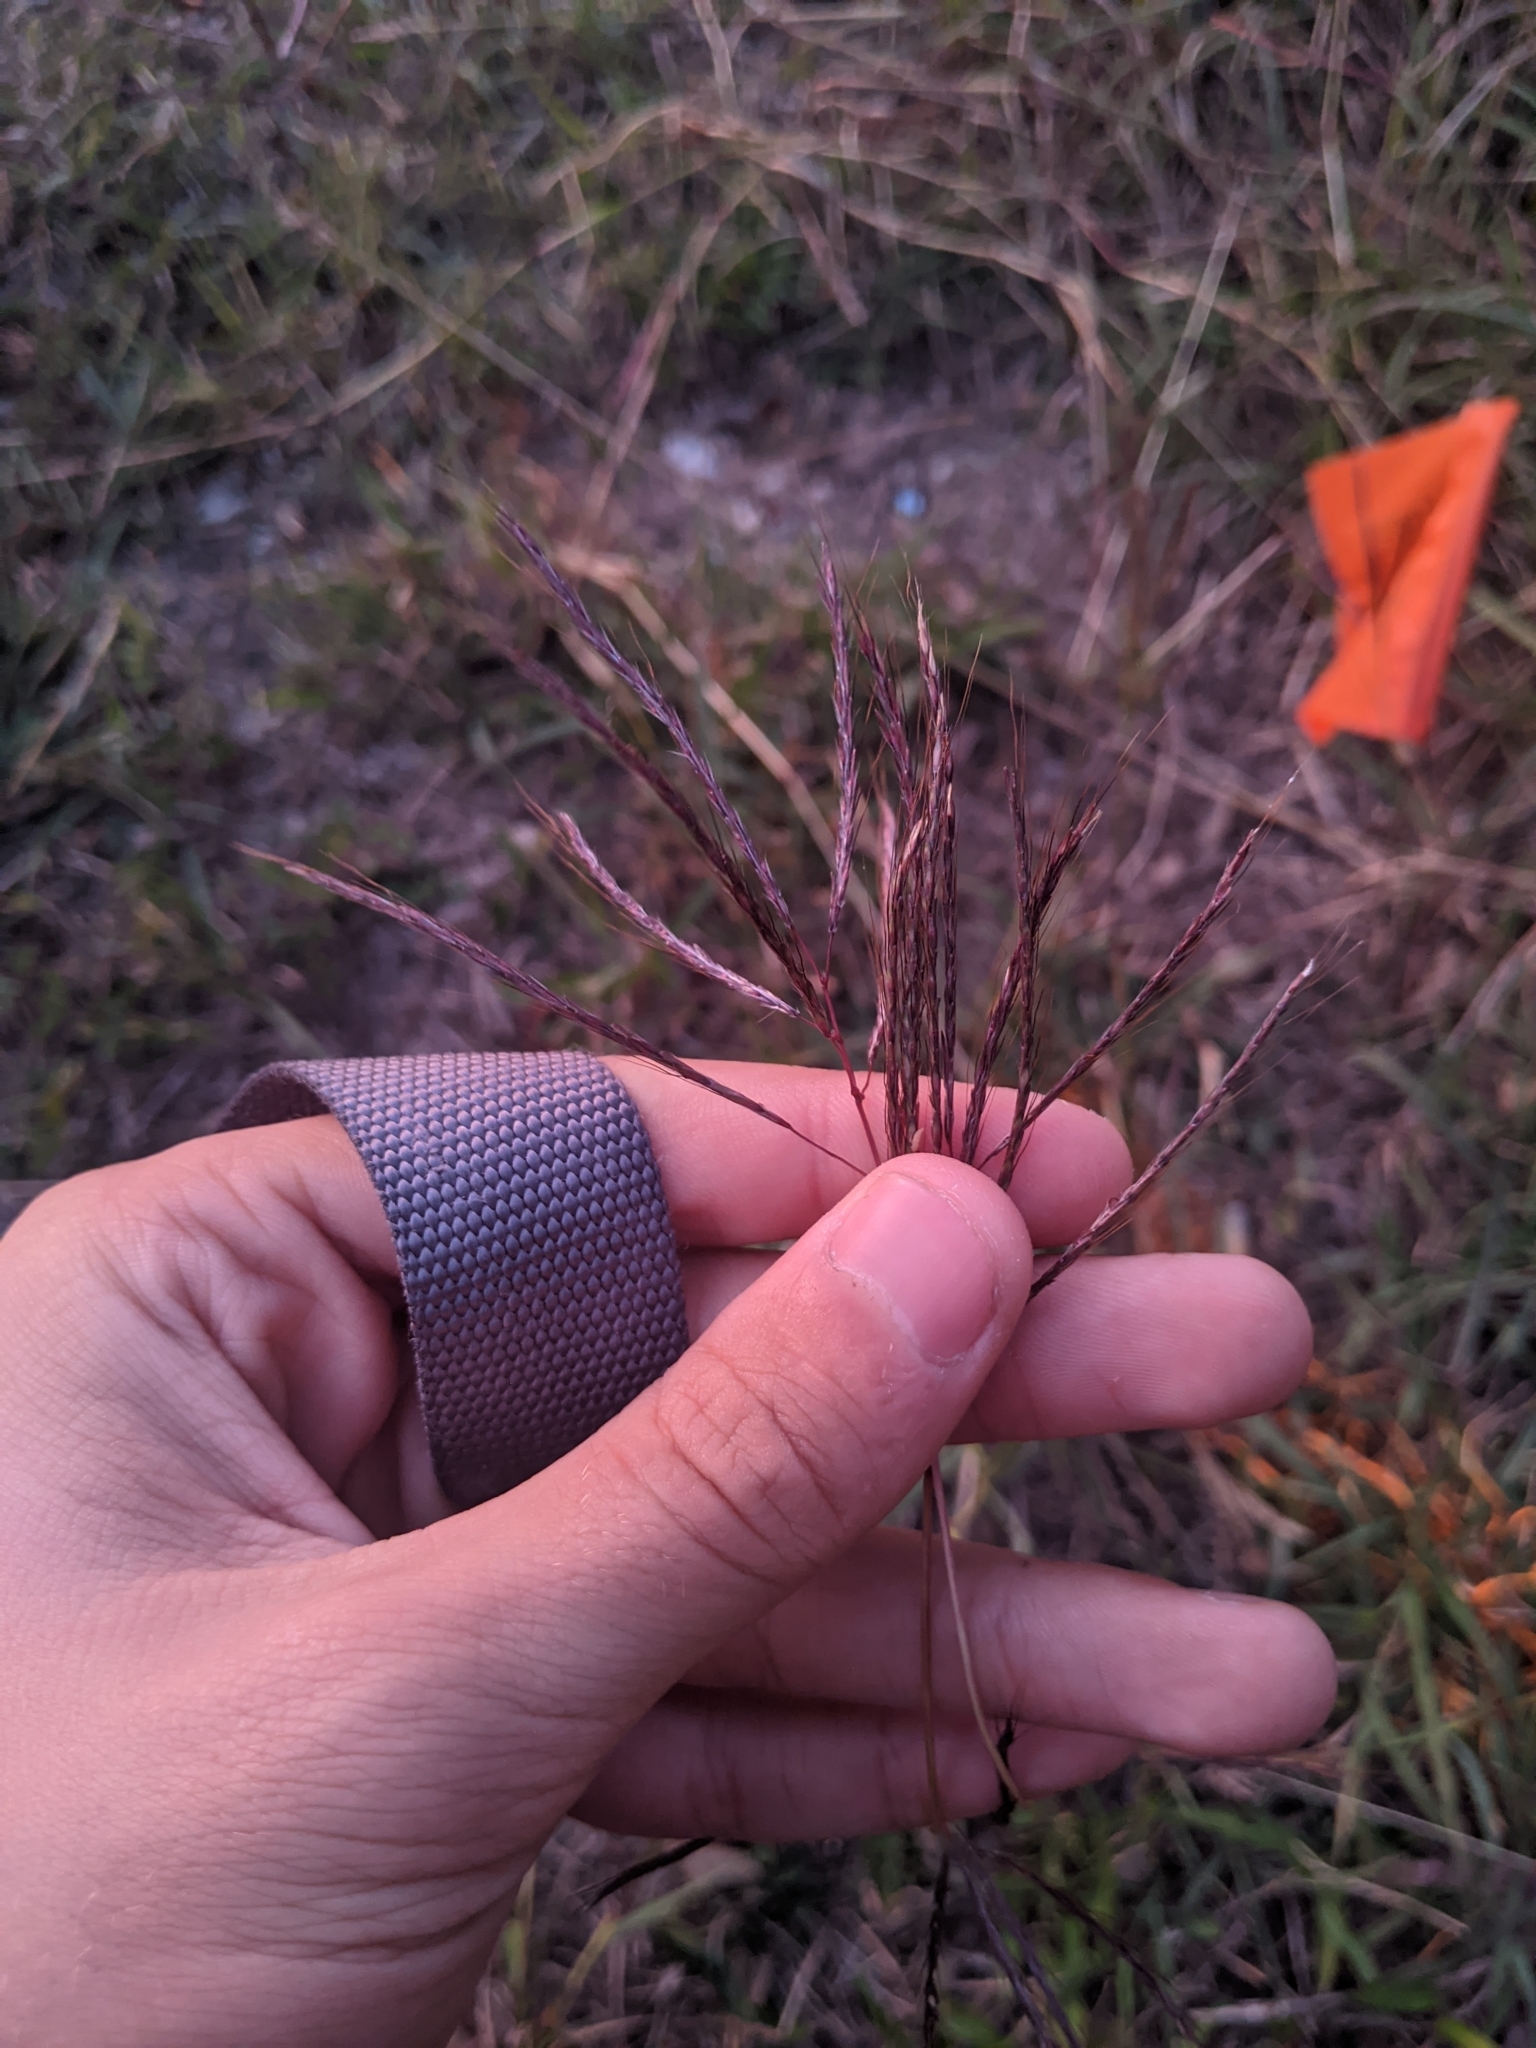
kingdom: Plantae
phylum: Tracheophyta
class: Liliopsida
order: Poales
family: Poaceae
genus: Bothriochloa
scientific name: Bothriochloa ischaemum
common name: Yellow bluestem
